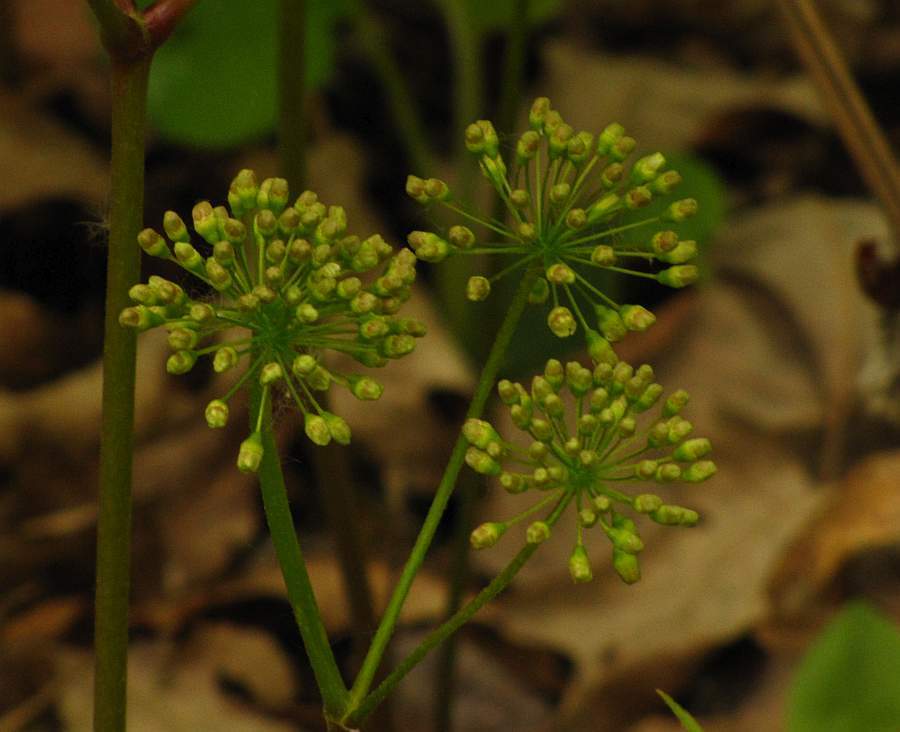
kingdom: Plantae
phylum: Tracheophyta
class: Magnoliopsida
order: Apiales
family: Araliaceae
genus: Aralia
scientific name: Aralia nudicaulis
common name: Wild sarsaparilla
